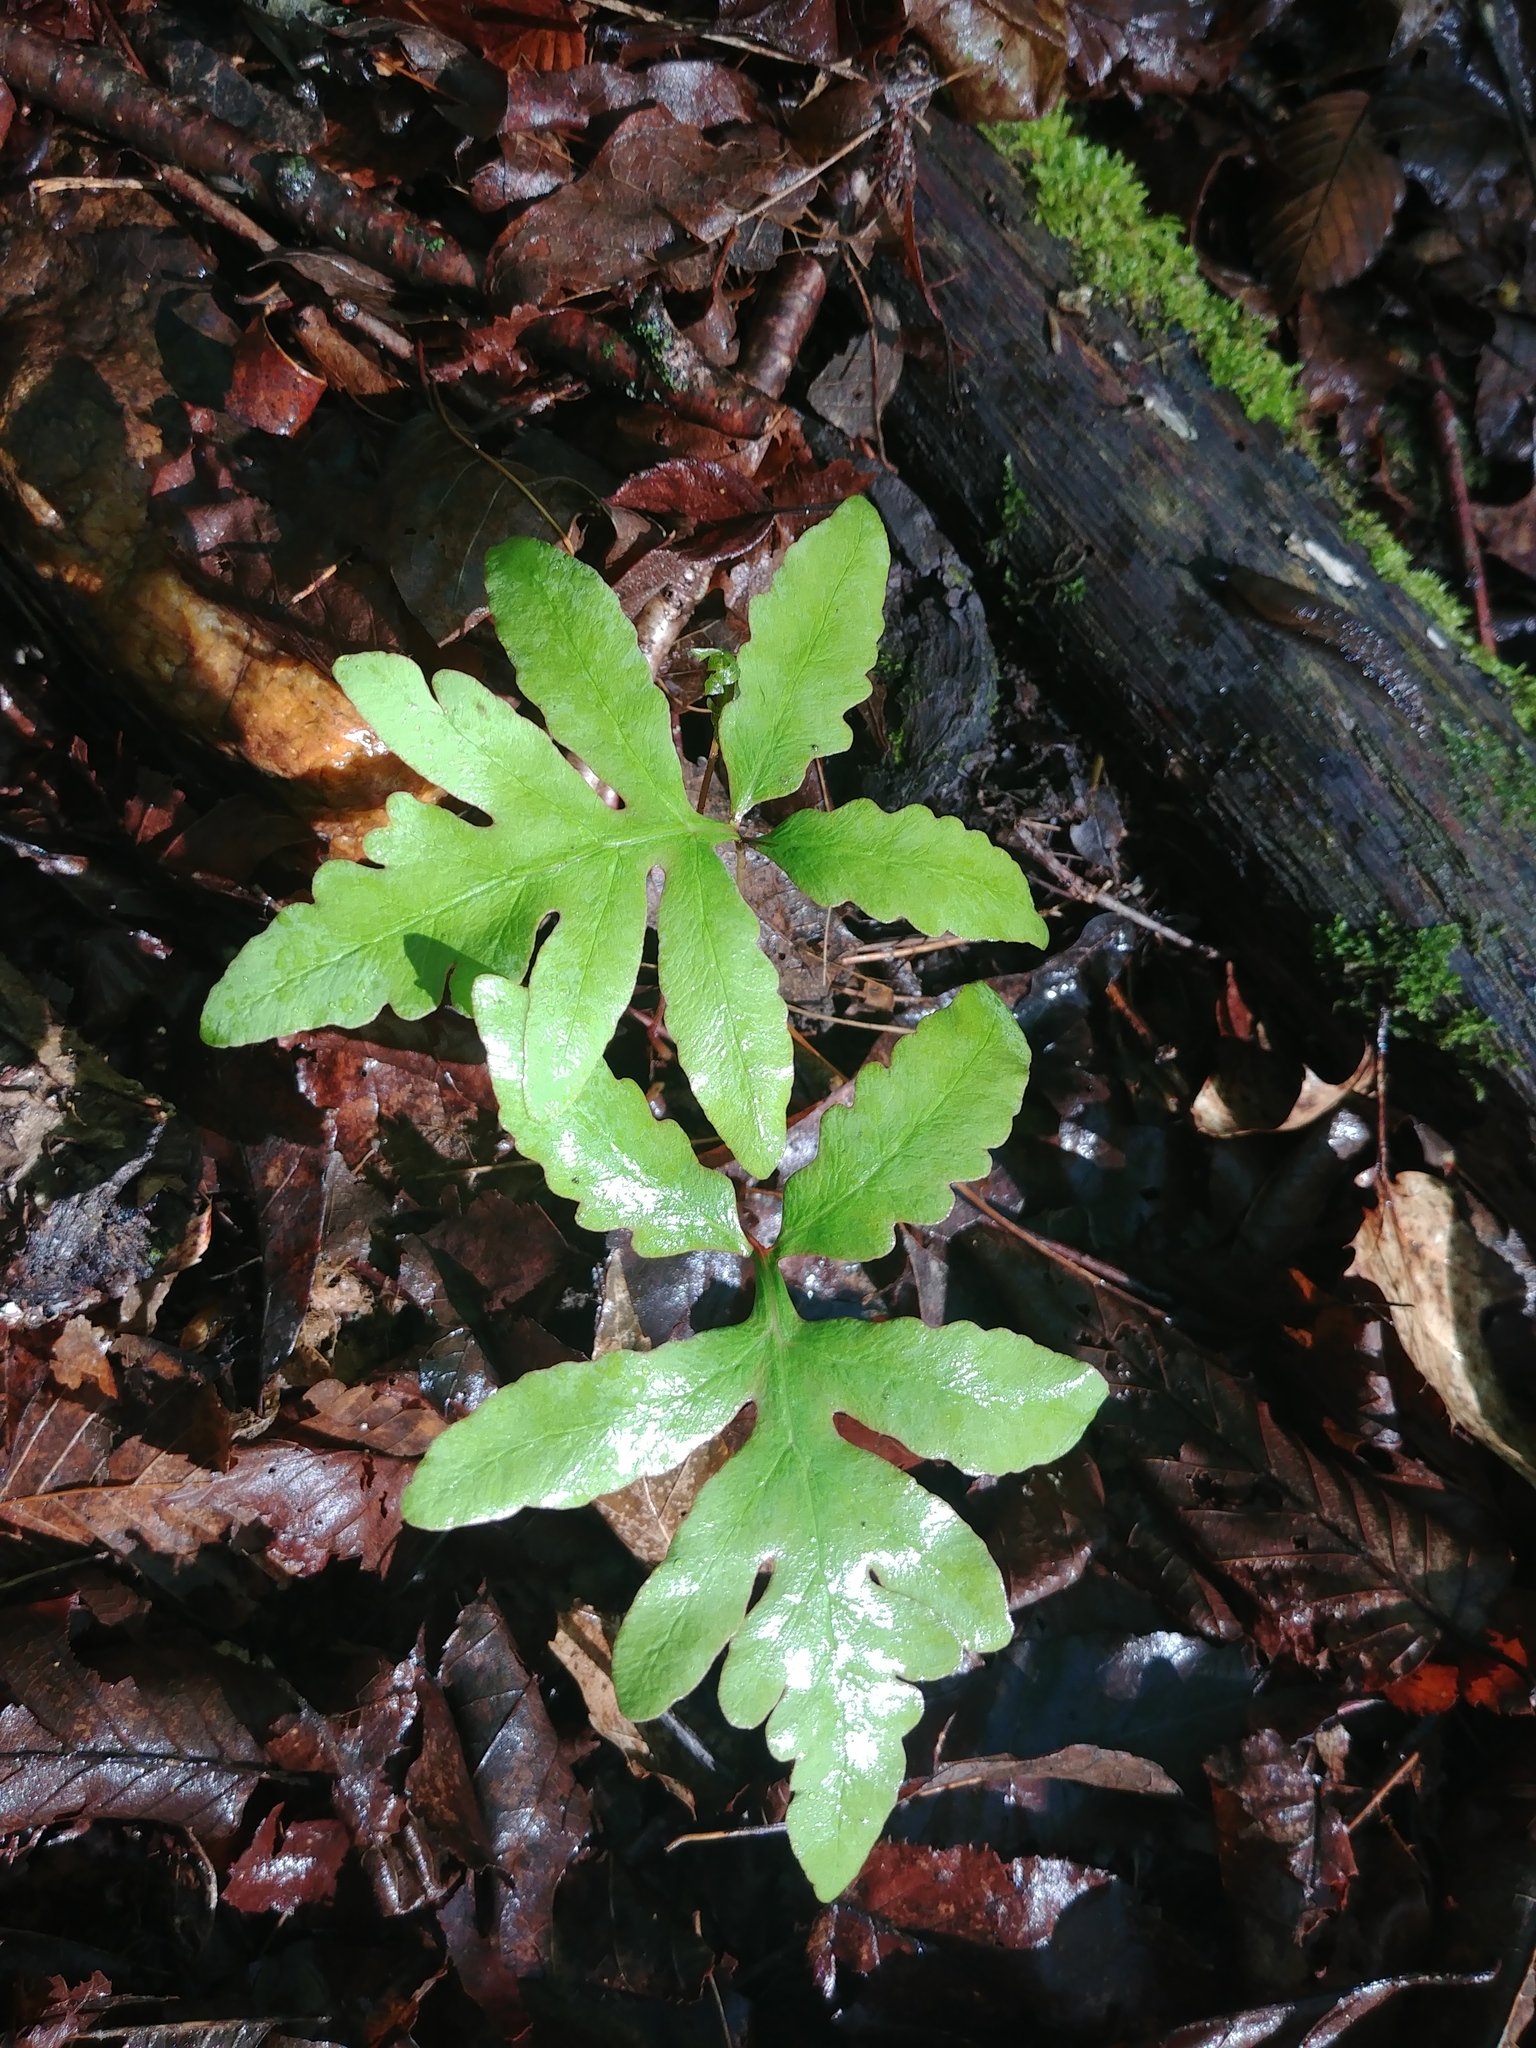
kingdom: Plantae
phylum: Tracheophyta
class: Polypodiopsida
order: Polypodiales
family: Onocleaceae
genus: Onoclea
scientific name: Onoclea sensibilis
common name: Sensitive fern
